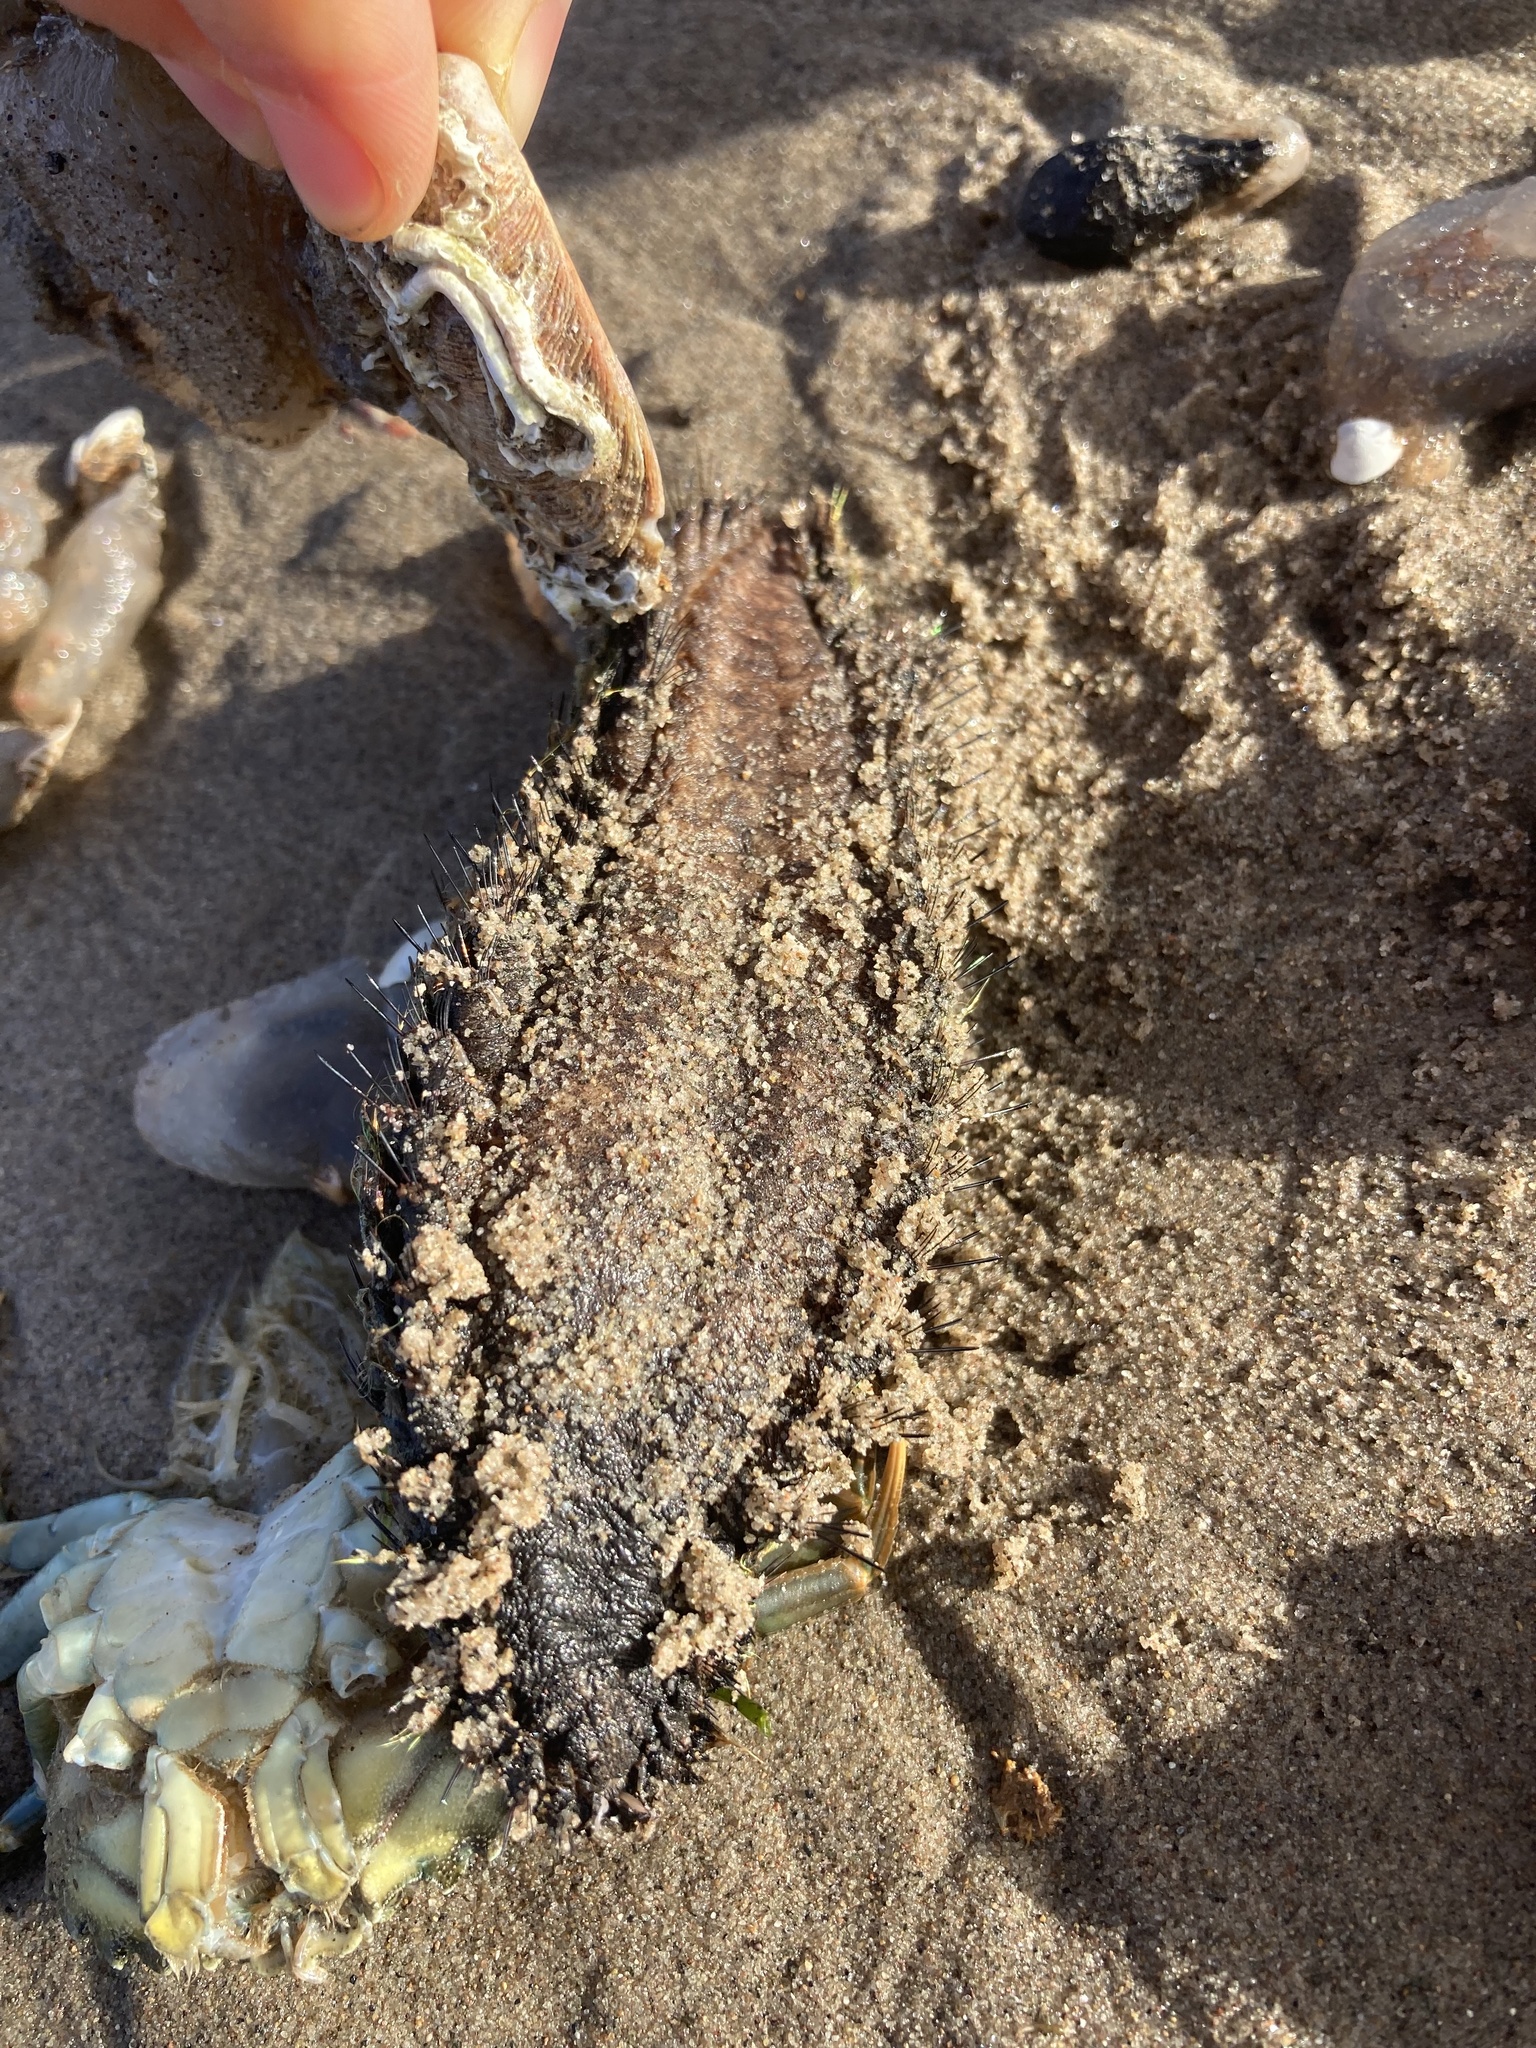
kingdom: Animalia
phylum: Annelida
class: Polychaeta
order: Phyllodocida
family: Aphroditidae
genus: Aphrodita
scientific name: Aphrodita aculeata
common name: Sea mouse
